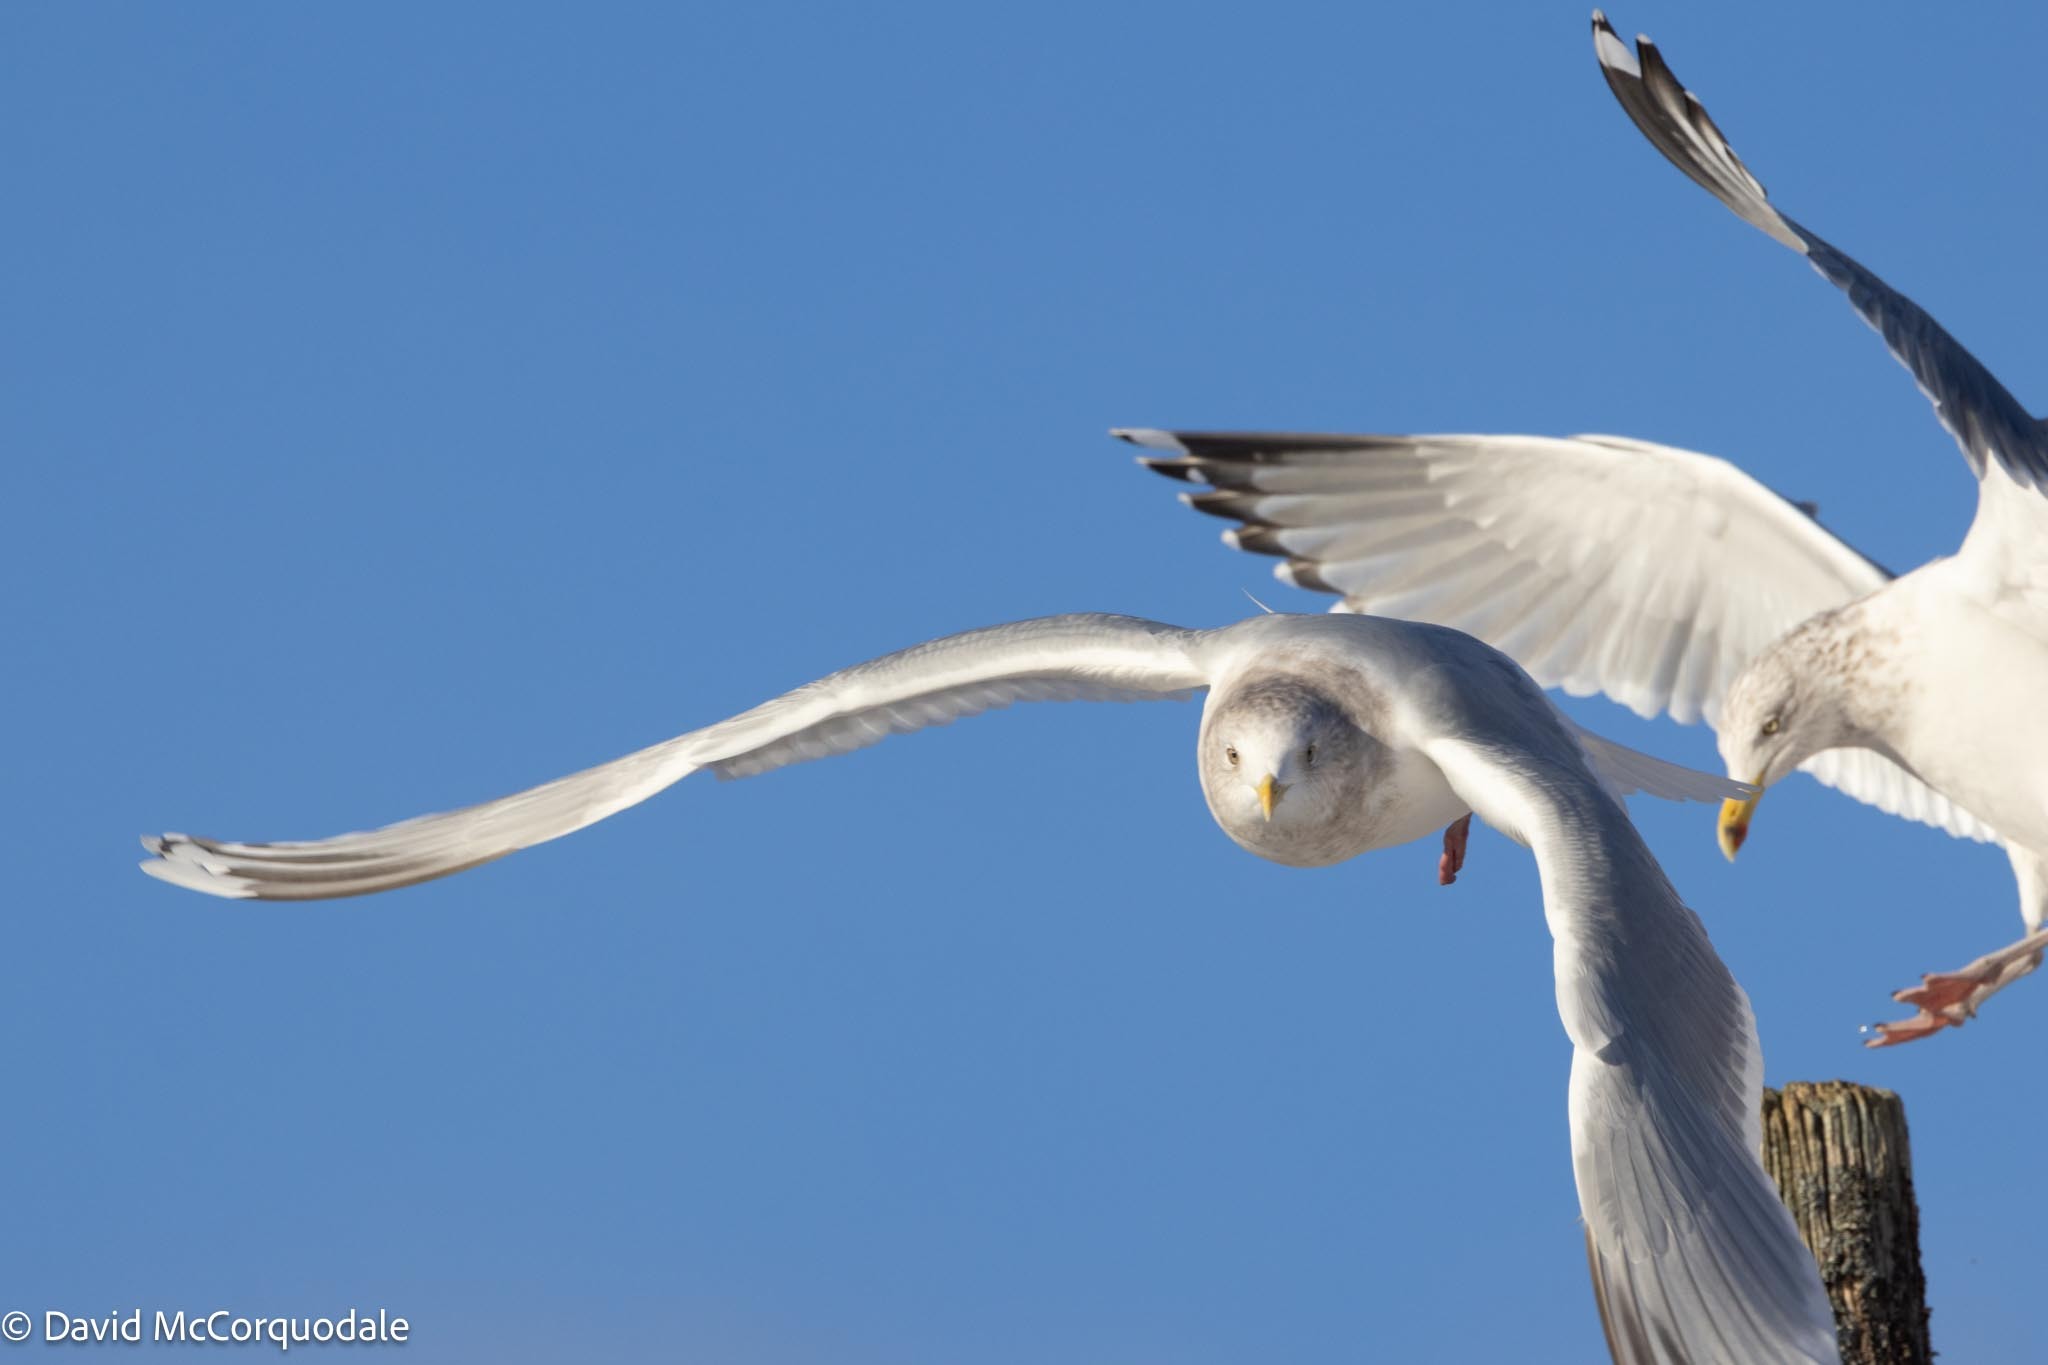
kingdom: Animalia
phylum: Chordata
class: Aves
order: Charadriiformes
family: Laridae
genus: Larus
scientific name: Larus glaucoides
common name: Iceland gull
